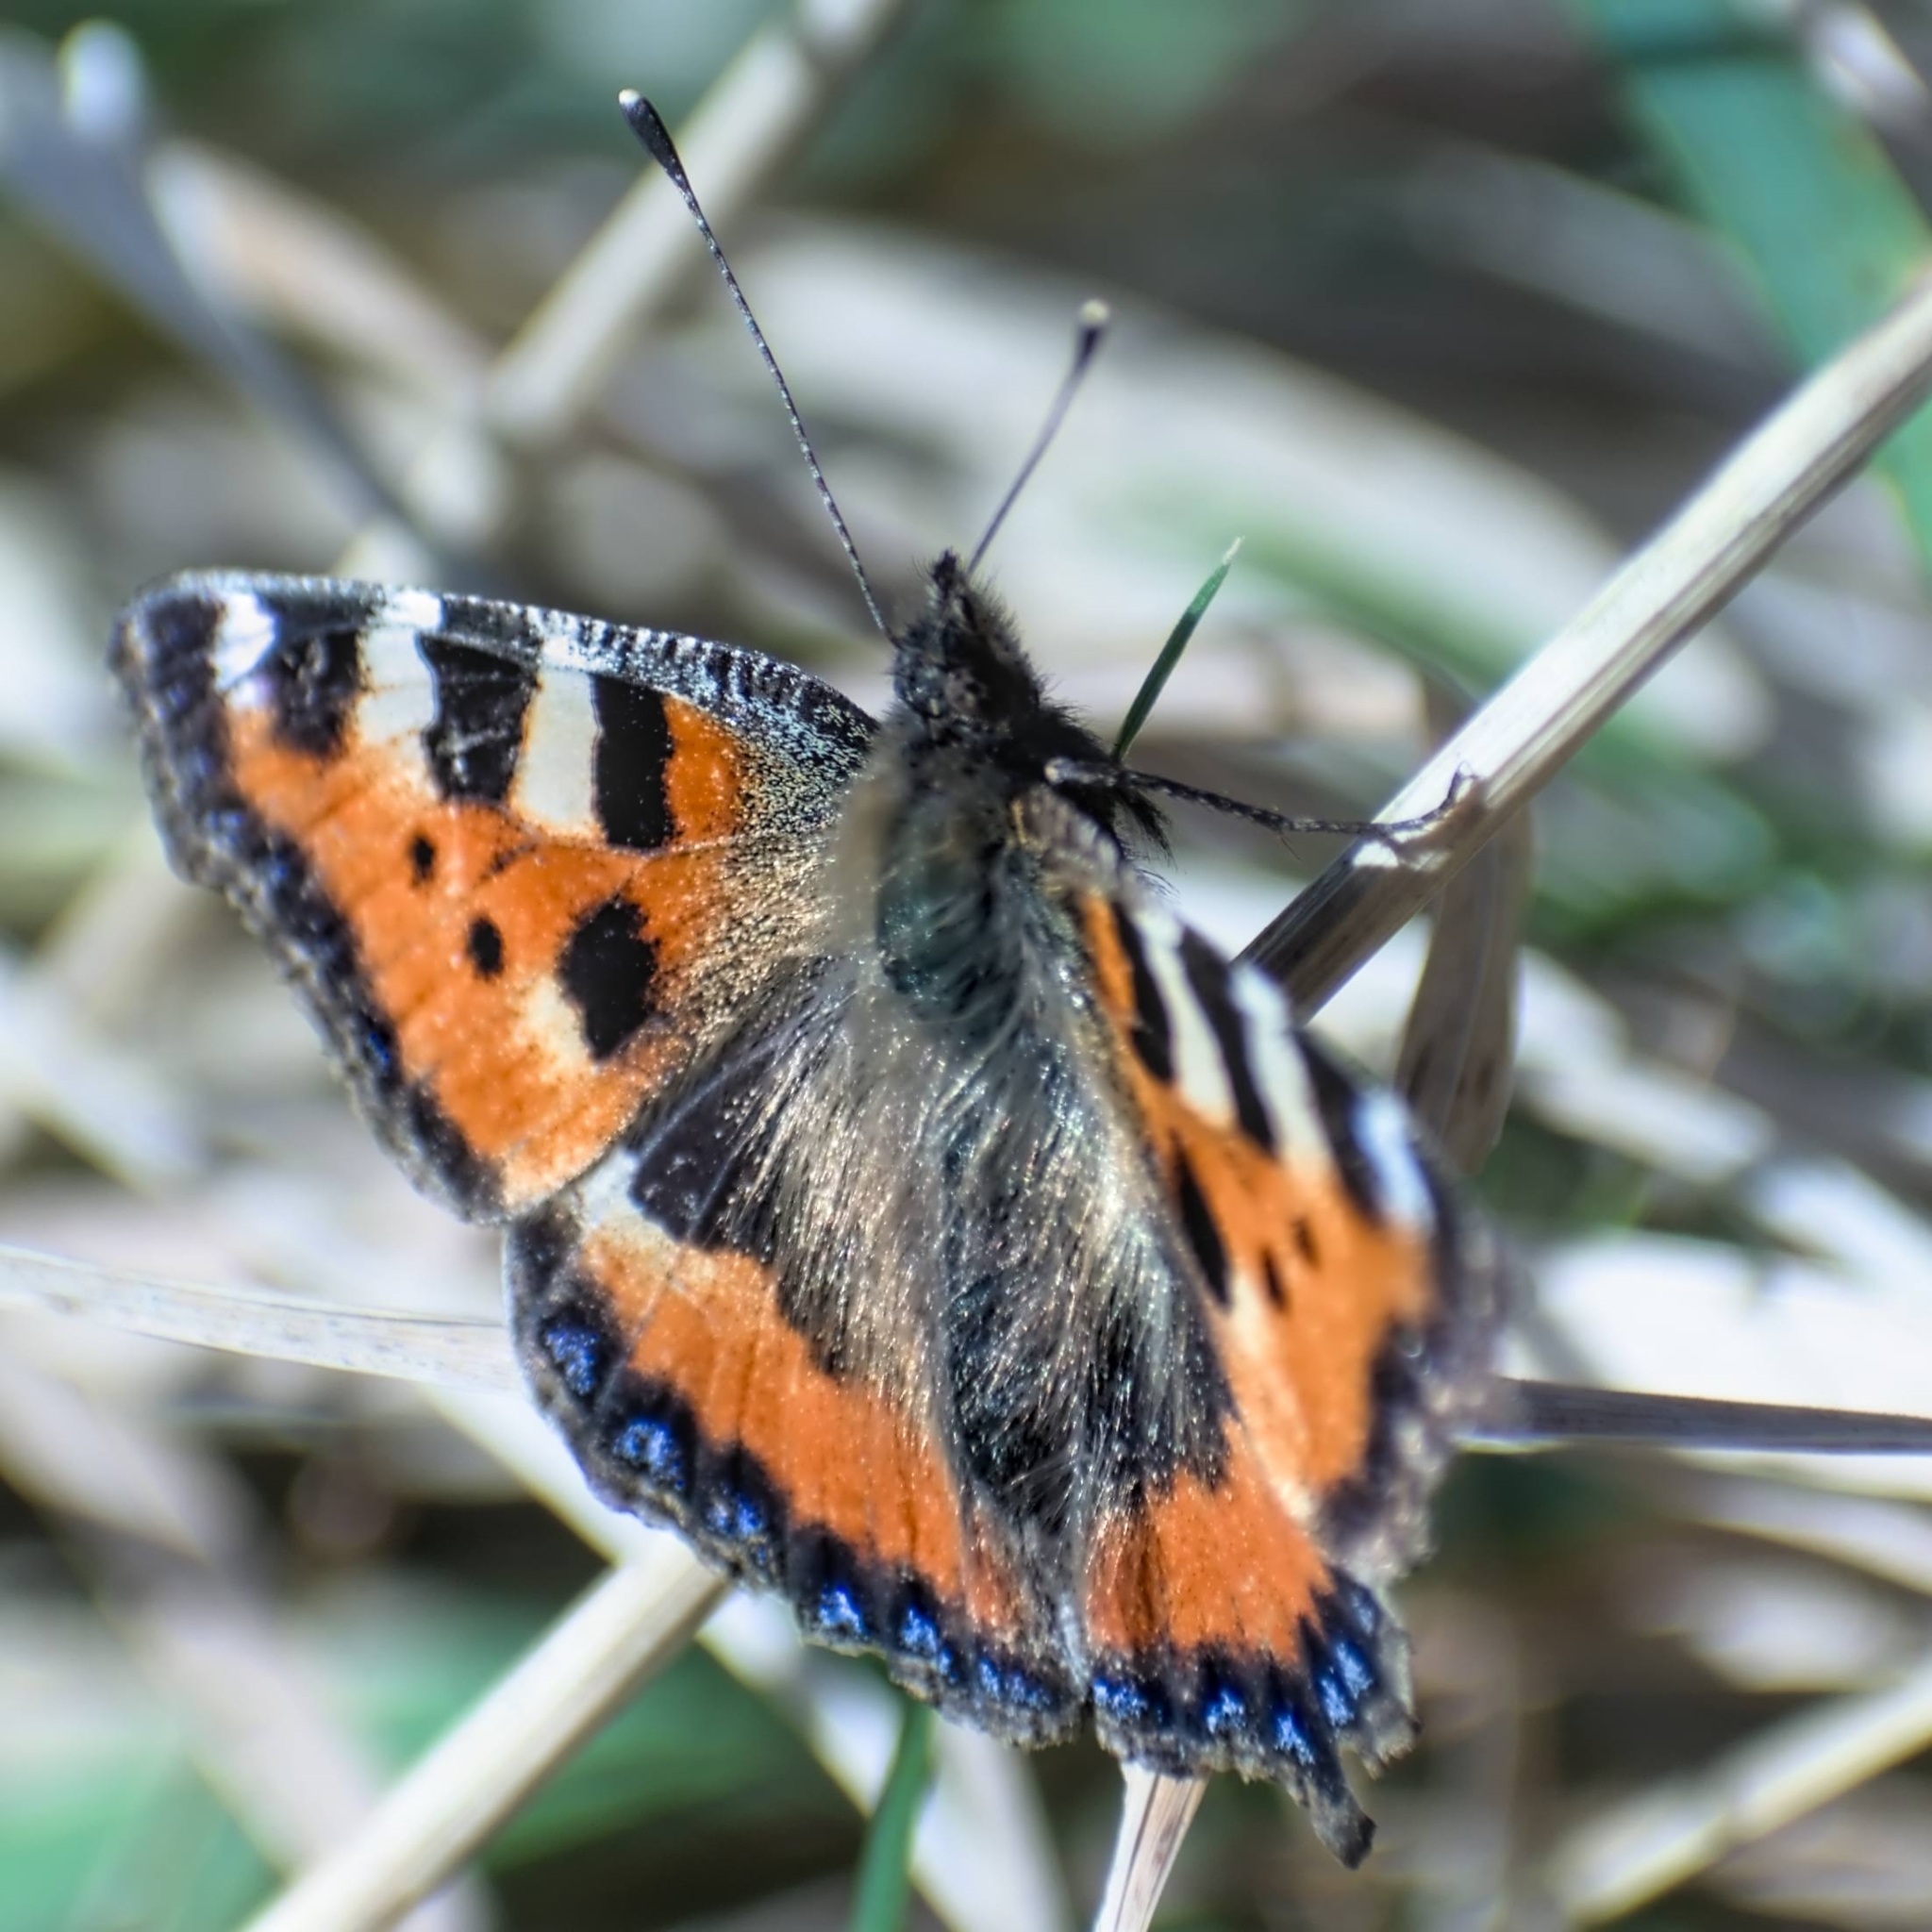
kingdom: Animalia
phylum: Arthropoda
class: Insecta
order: Lepidoptera
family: Nymphalidae
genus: Aglais
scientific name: Aglais urticae
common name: Small tortoiseshell
